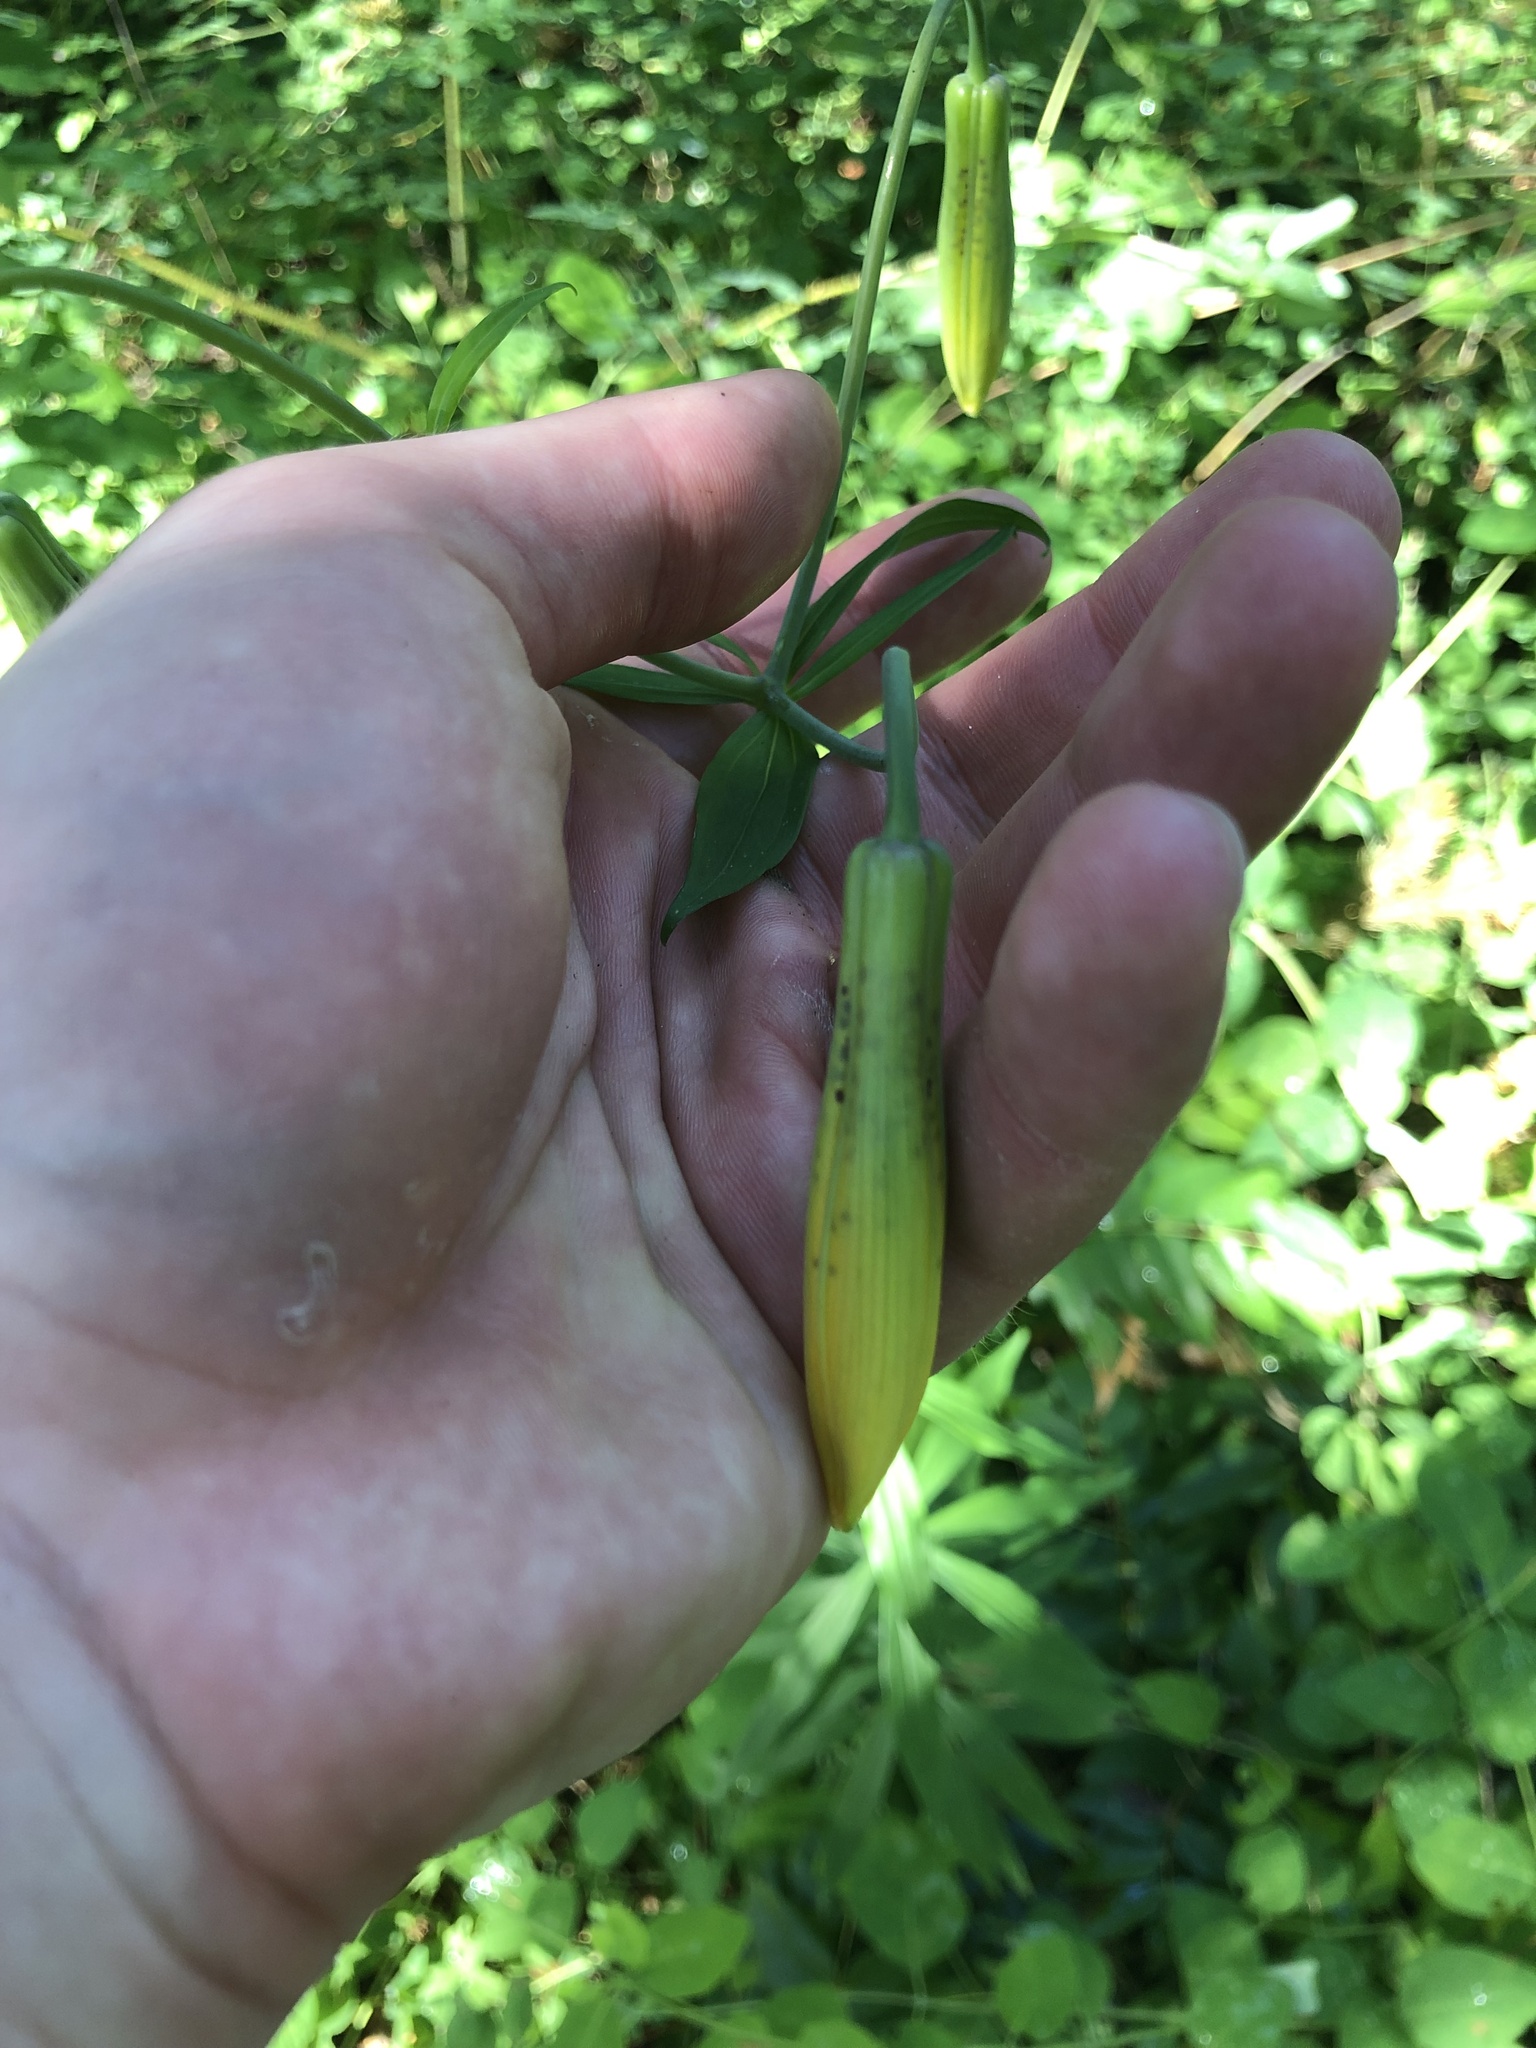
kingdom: Plantae
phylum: Tracheophyta
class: Liliopsida
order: Liliales
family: Liliaceae
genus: Lilium
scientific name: Lilium columbianum
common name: Columbia lily
